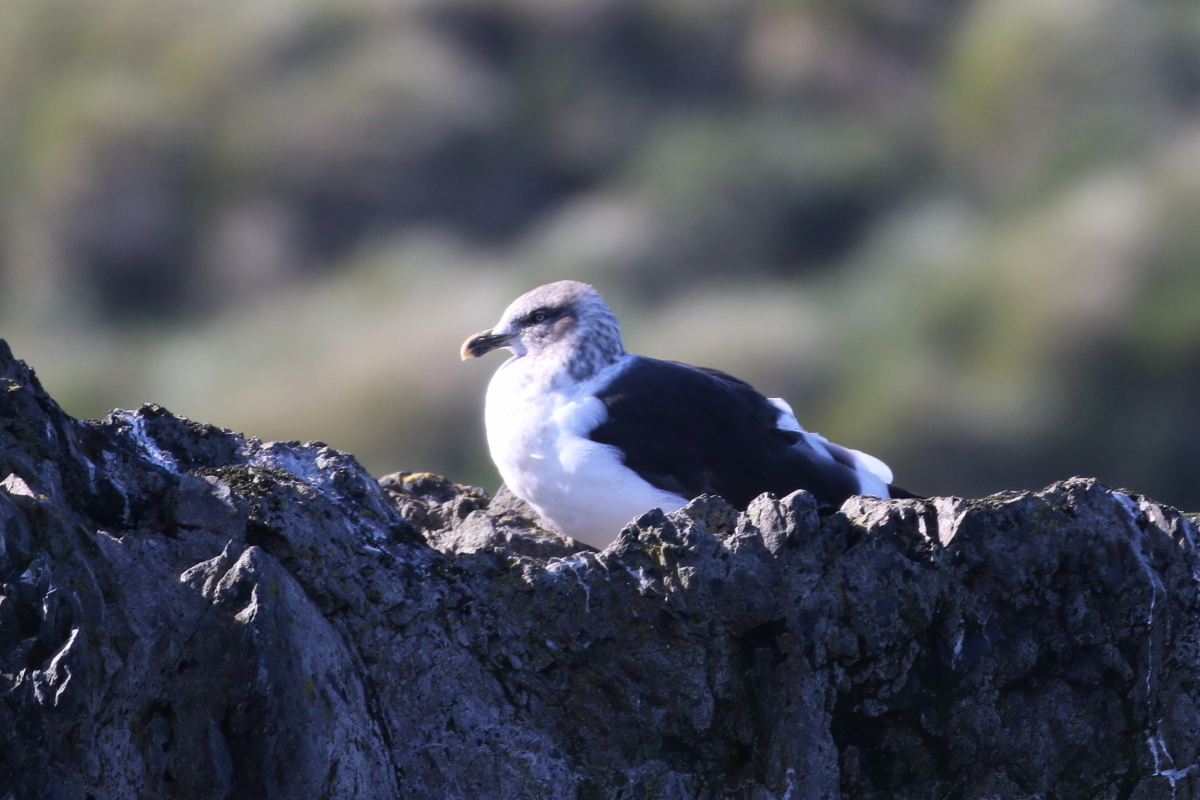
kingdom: Animalia
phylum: Chordata
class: Aves
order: Charadriiformes
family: Laridae
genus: Larus
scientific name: Larus dominicanus
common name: Kelp gull
